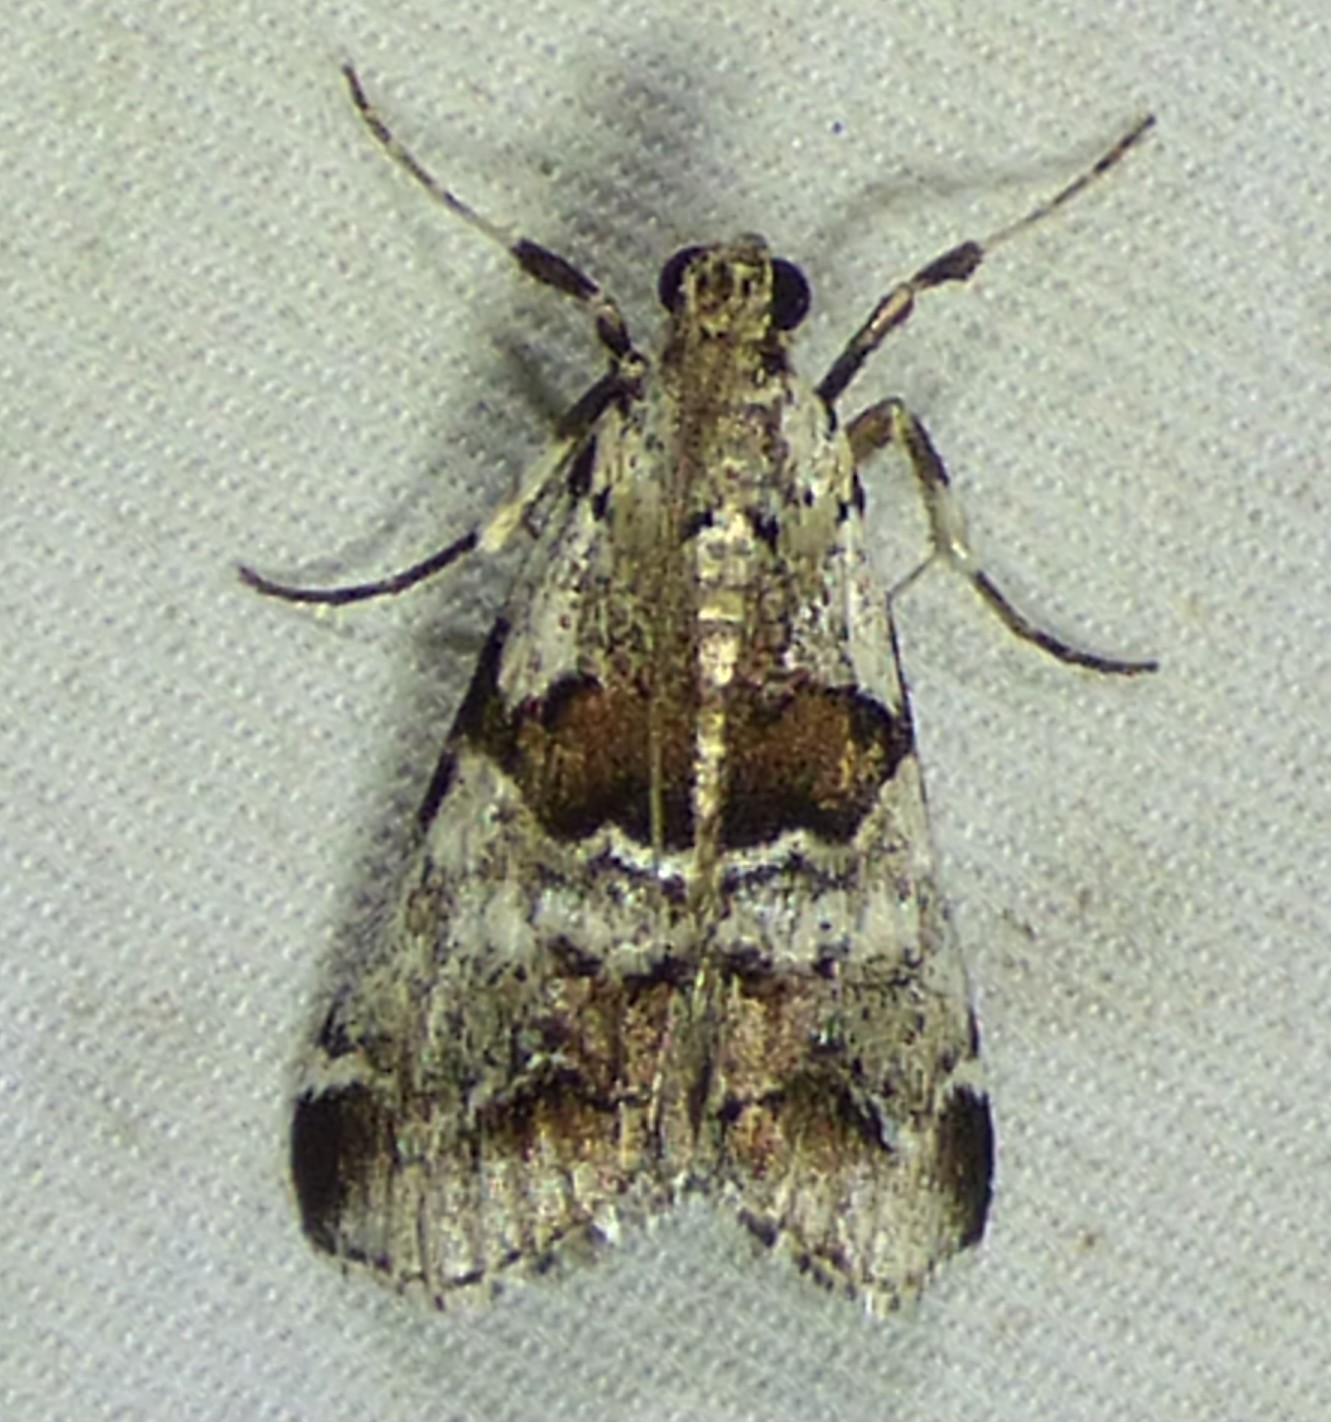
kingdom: Animalia
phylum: Arthropoda
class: Insecta
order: Lepidoptera
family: Pyralidae
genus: Tallula
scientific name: Tallula atrifascialis
